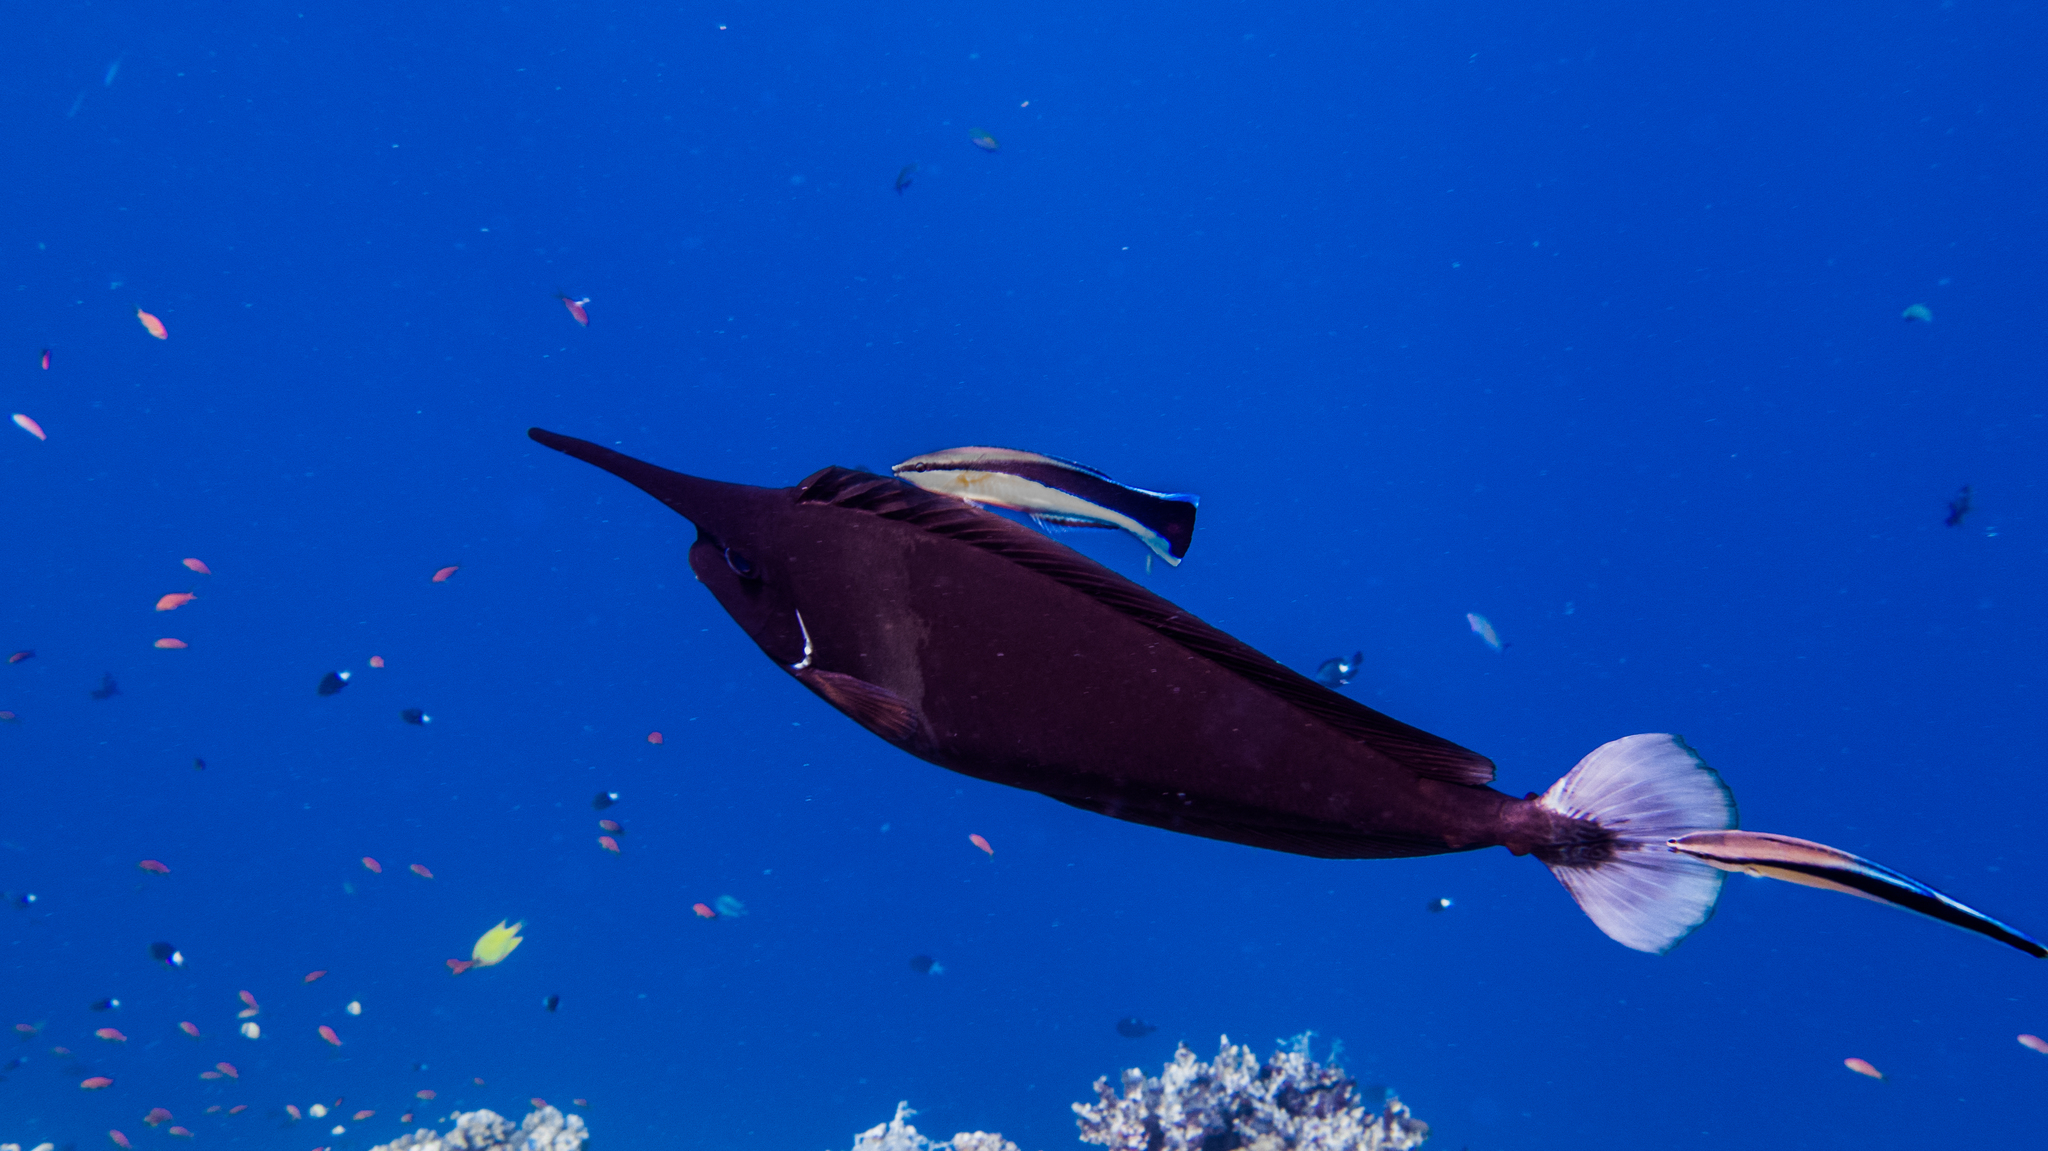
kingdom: Animalia
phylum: Chordata
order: Perciformes
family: Acanthuridae
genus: Naso
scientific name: Naso brevirostris
